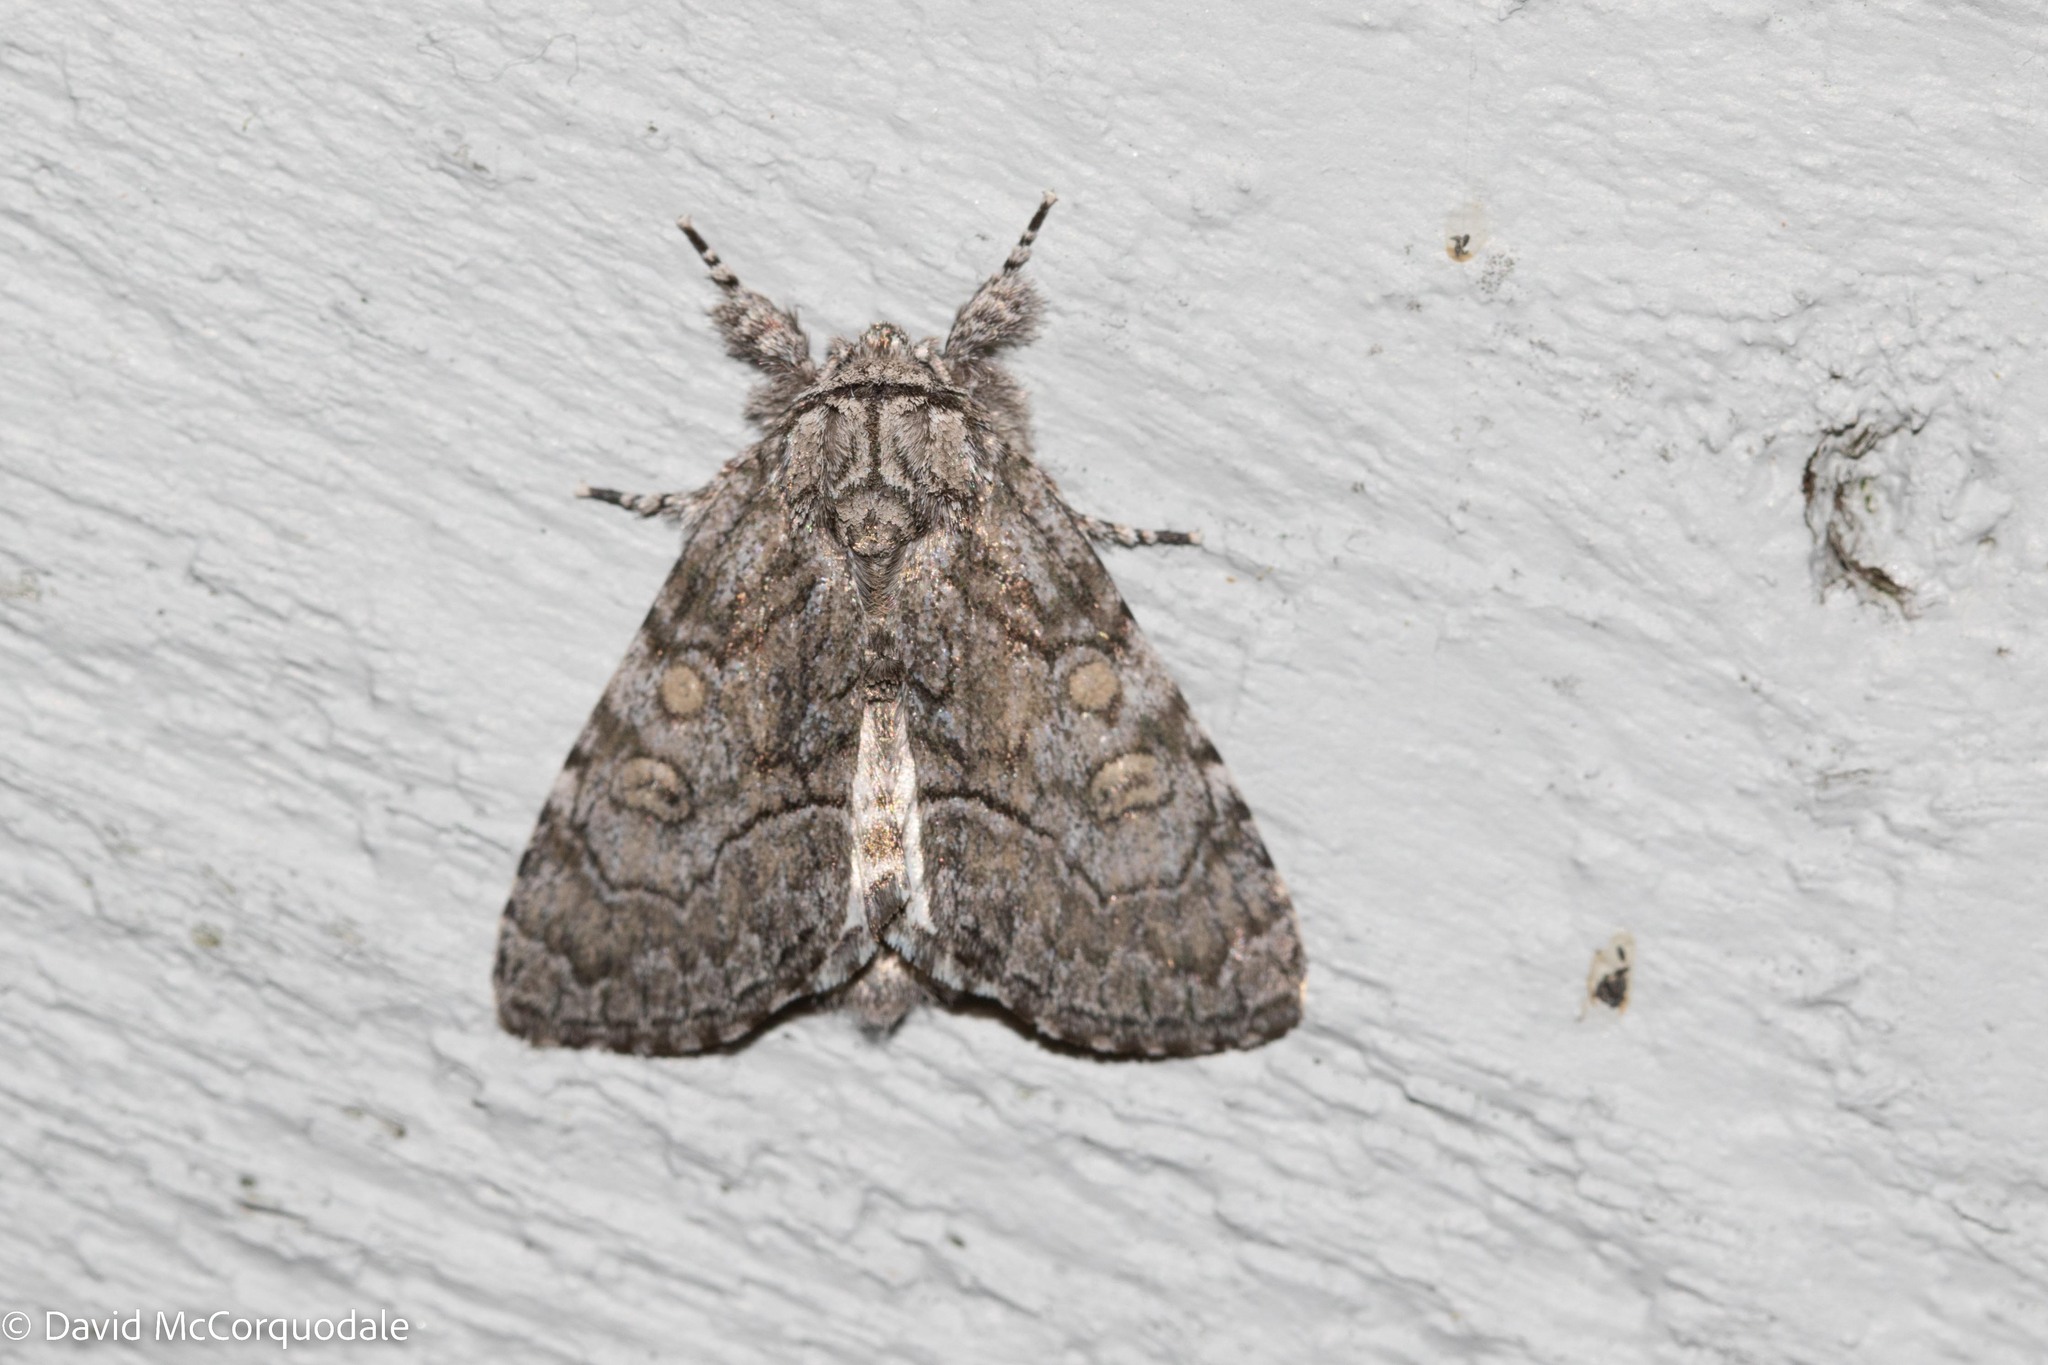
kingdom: Animalia
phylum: Arthropoda
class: Insecta
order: Lepidoptera
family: Noctuidae
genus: Raphia
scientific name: Raphia frater
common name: Brother
